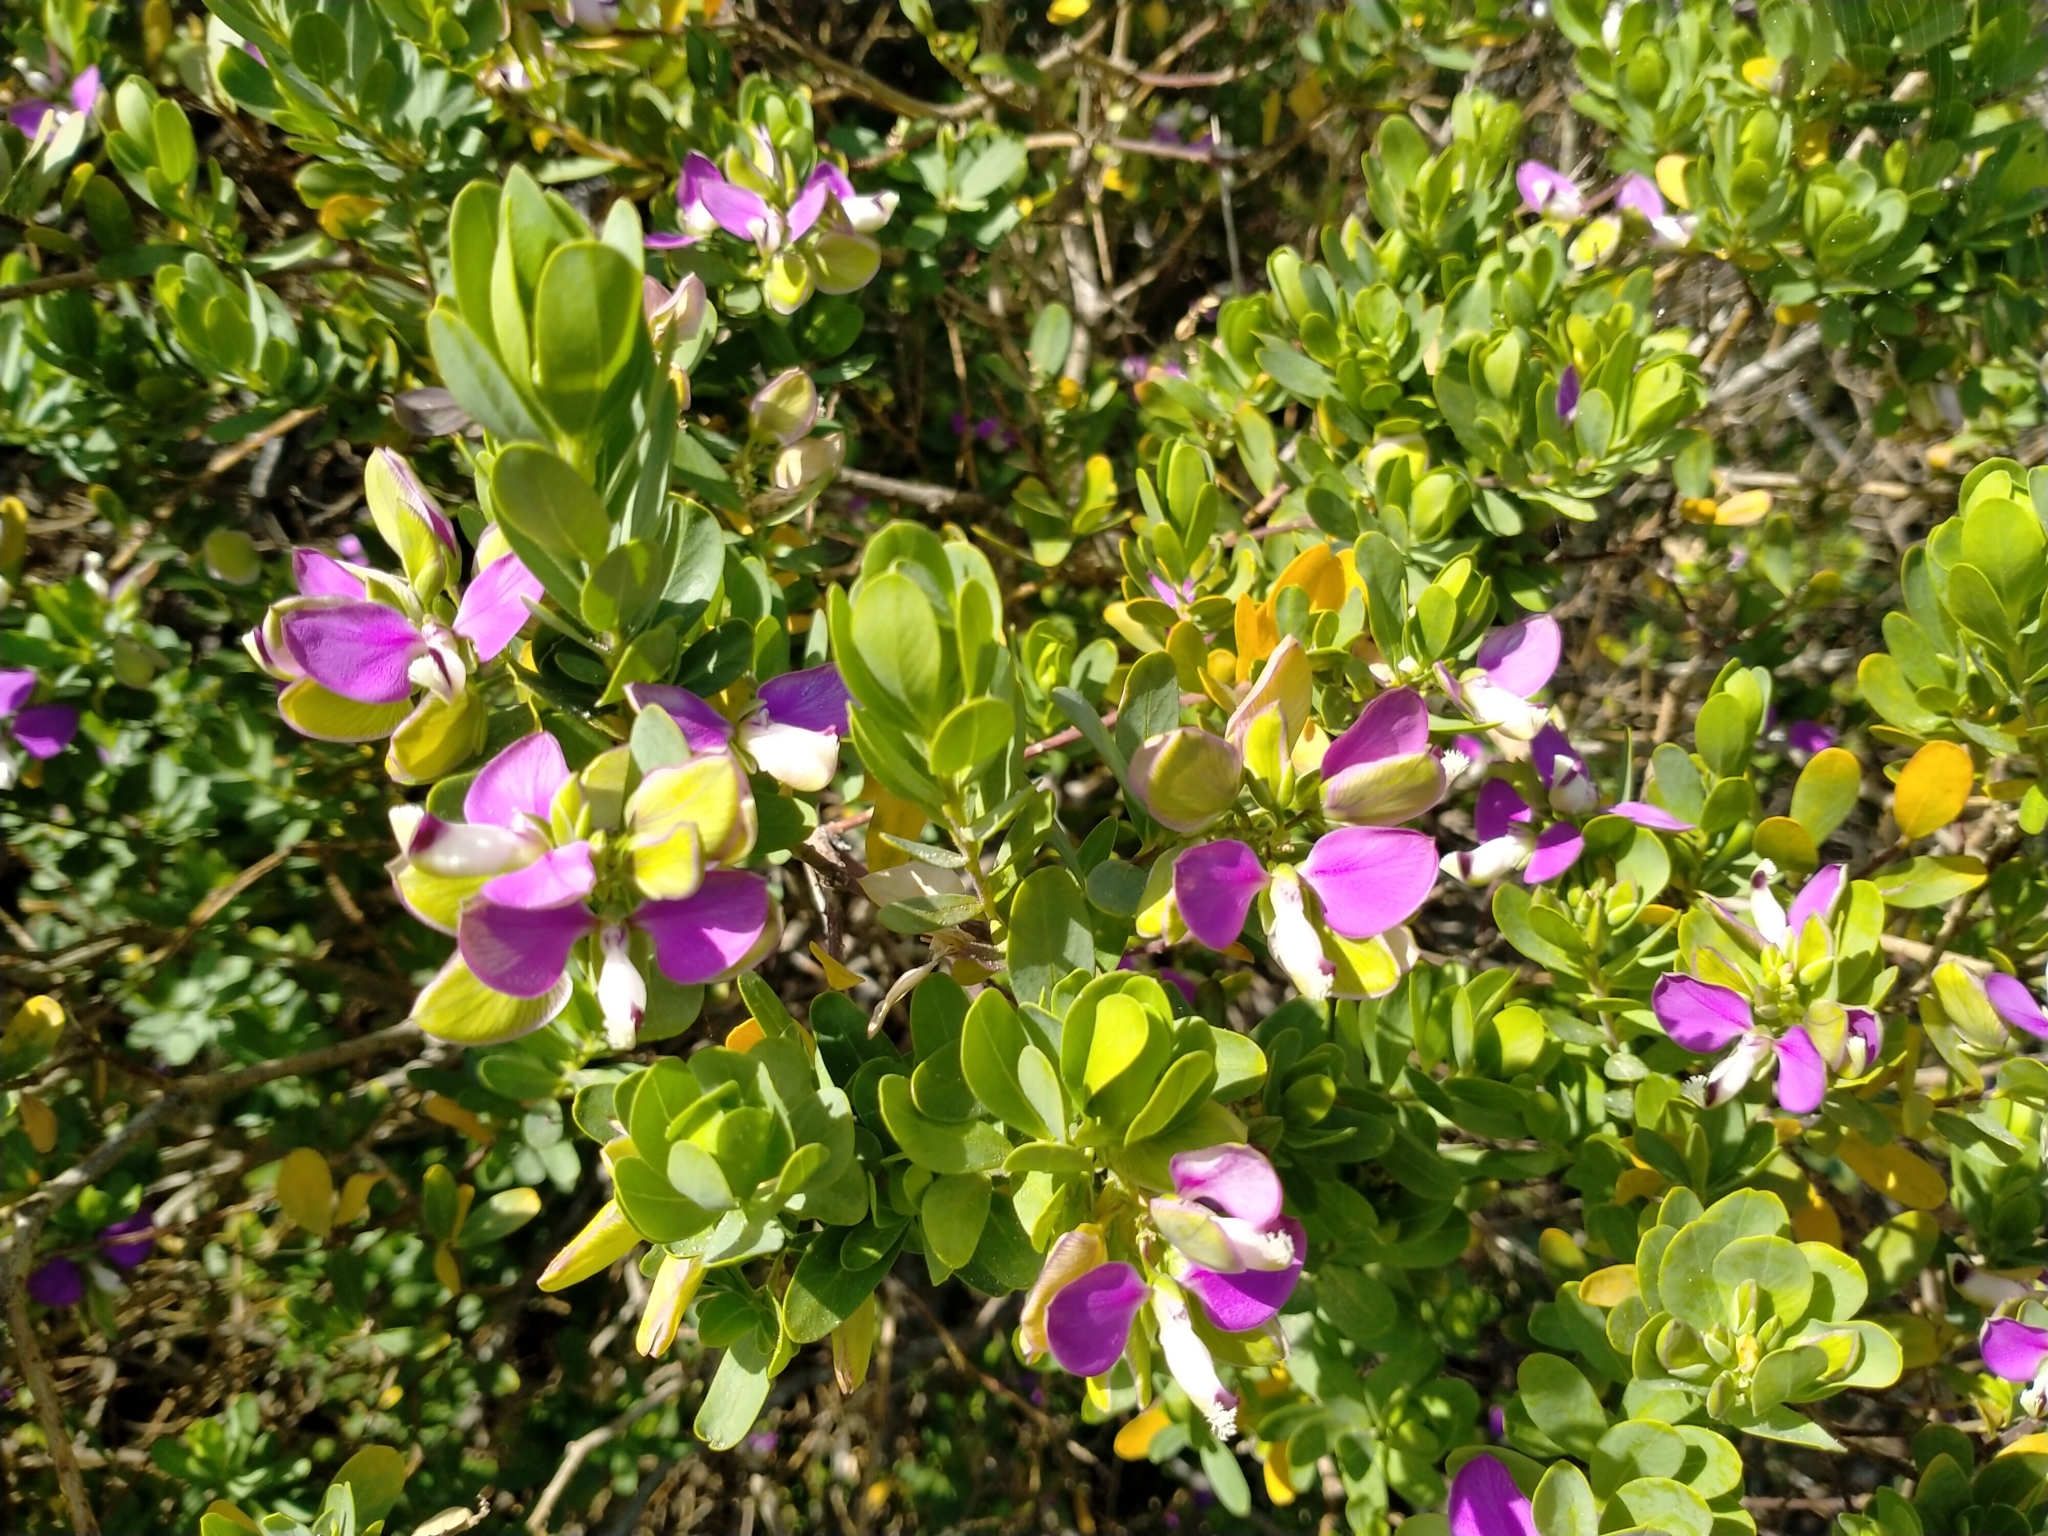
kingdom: Plantae
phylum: Tracheophyta
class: Magnoliopsida
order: Fabales
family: Polygalaceae
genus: Polygala
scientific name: Polygala myrtifolia
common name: Myrtle-leaf milkwort
